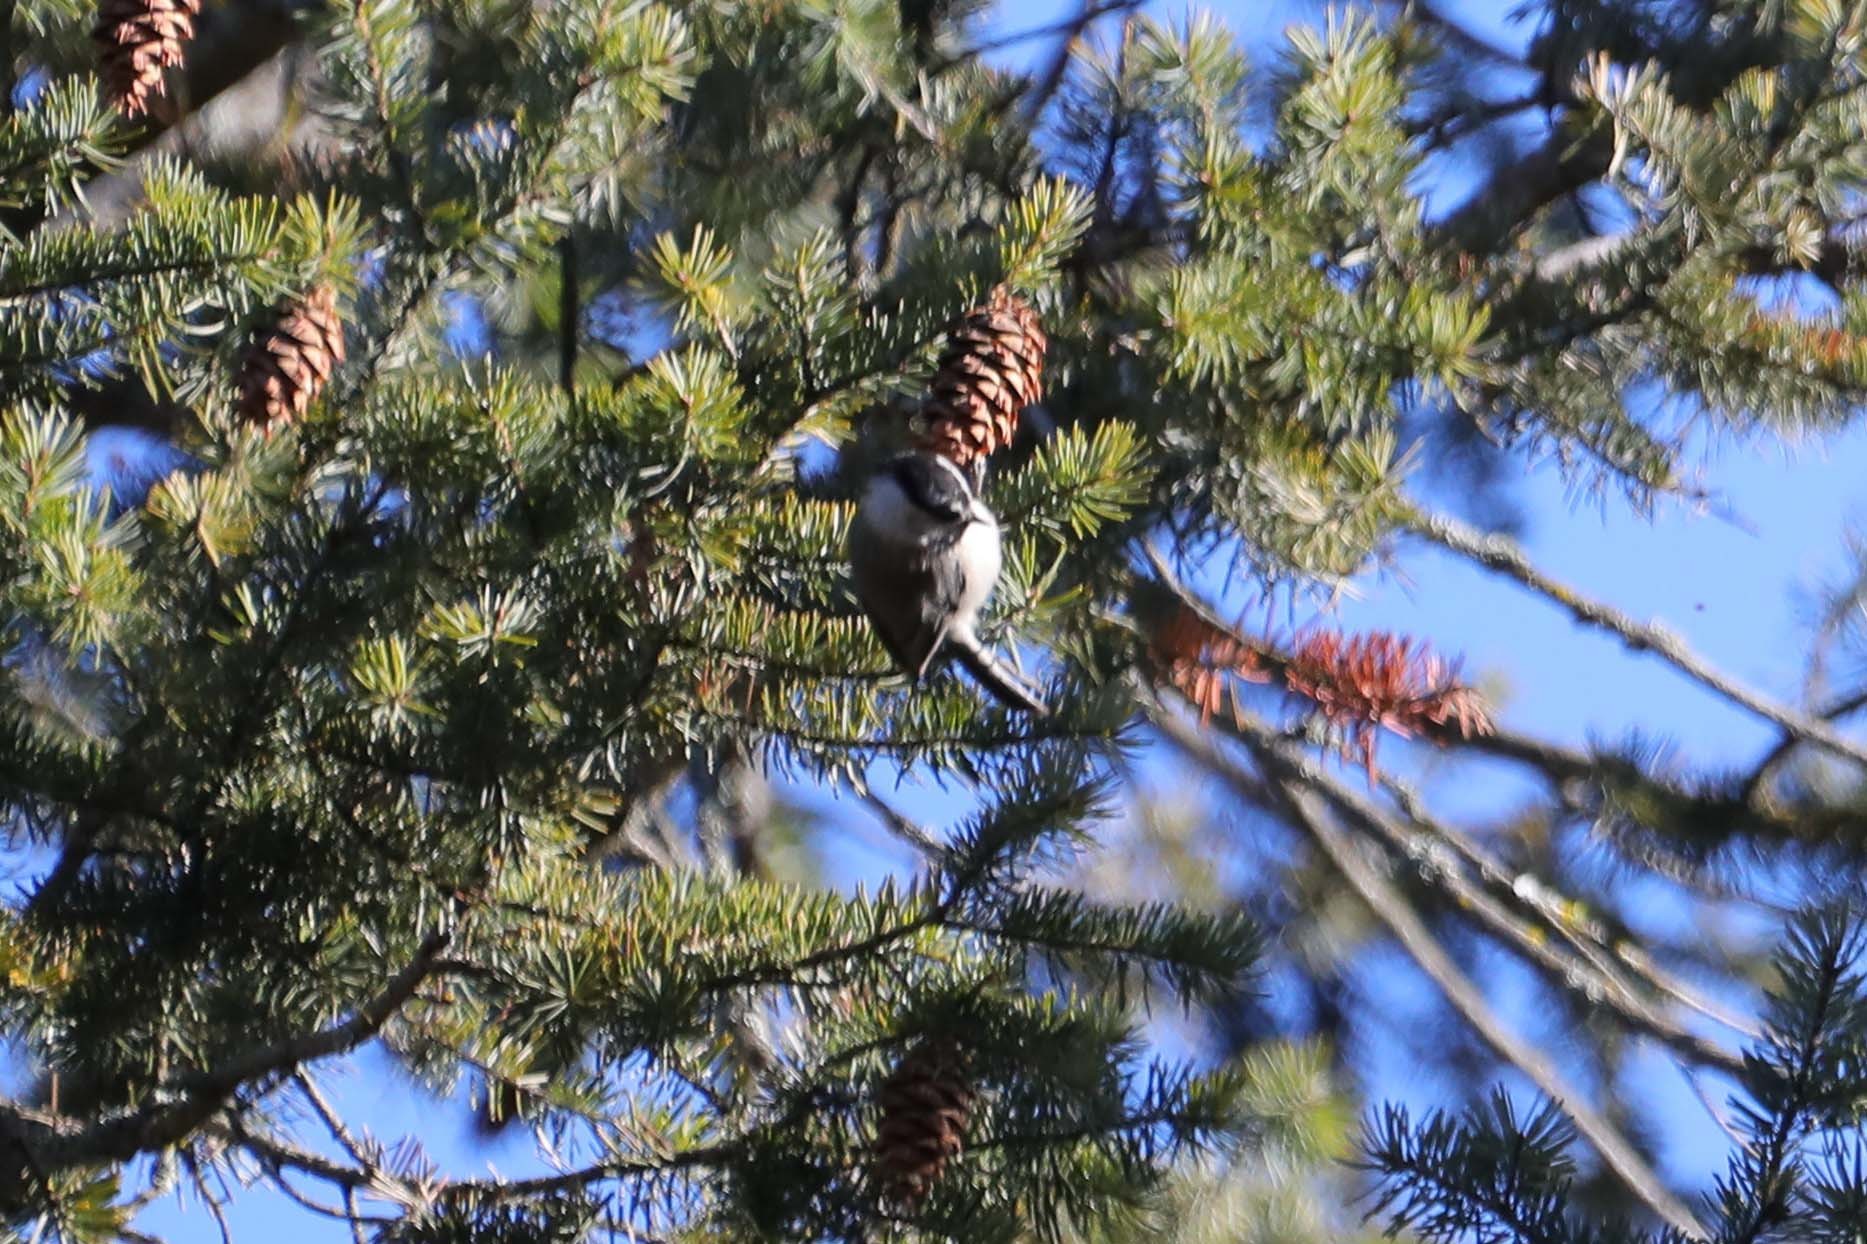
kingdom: Animalia
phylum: Chordata
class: Aves
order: Passeriformes
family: Paridae
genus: Poecile
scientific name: Poecile gambeli
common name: Mountain chickadee
